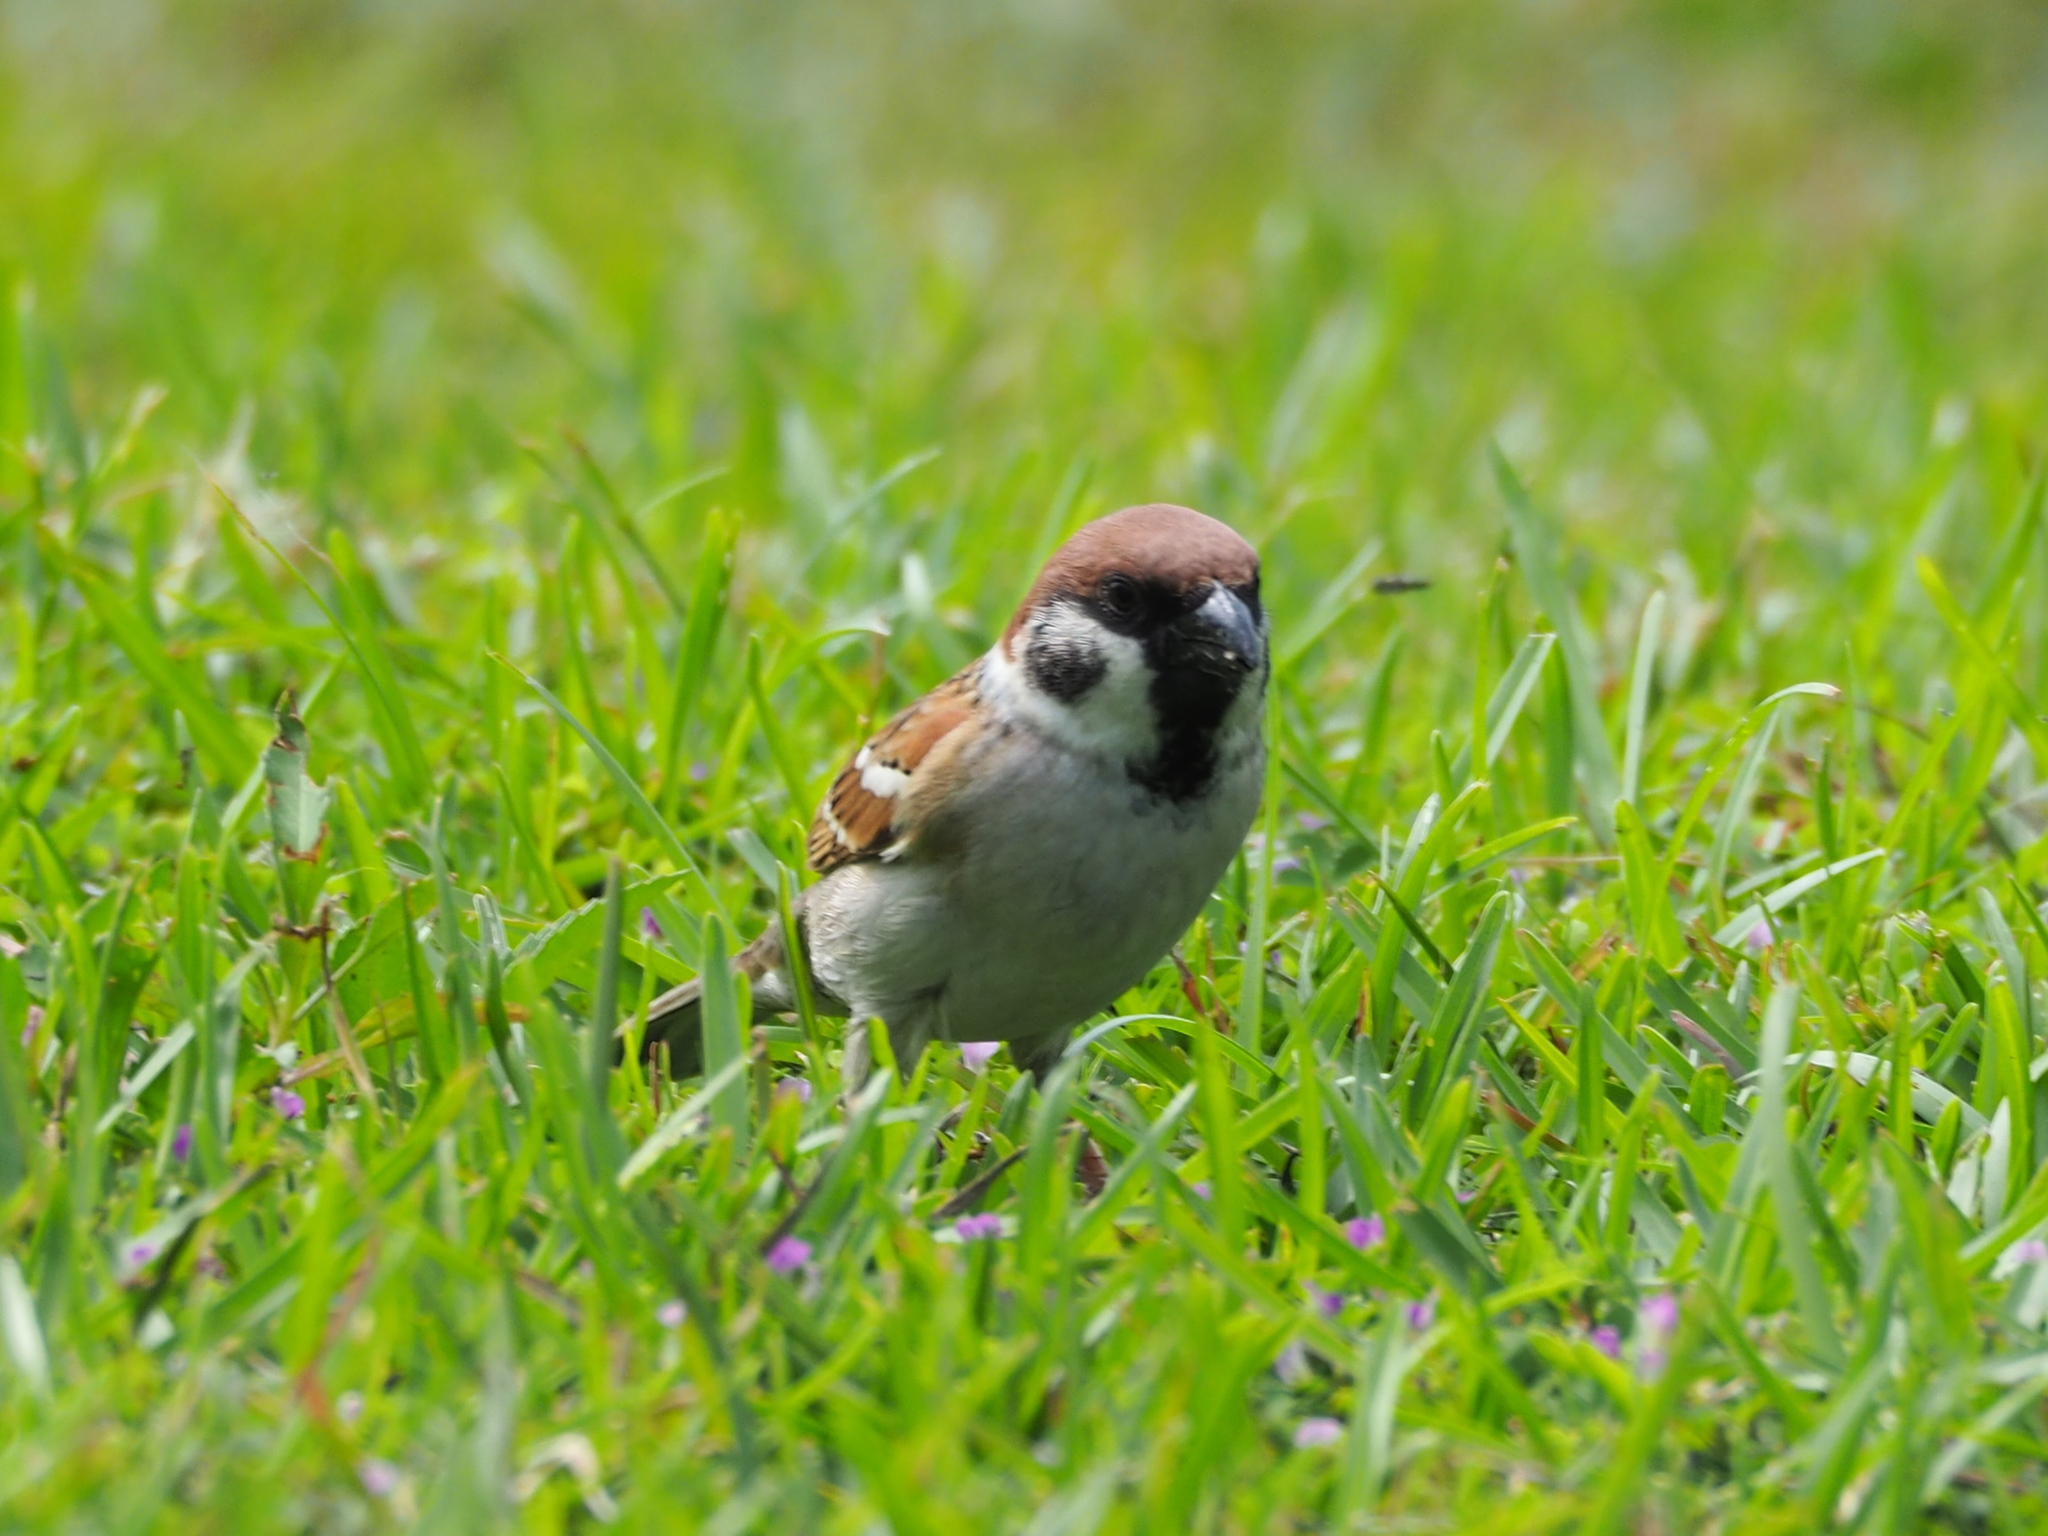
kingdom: Animalia
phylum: Chordata
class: Aves
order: Passeriformes
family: Passeridae
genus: Passer
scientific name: Passer montanus
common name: Eurasian tree sparrow
